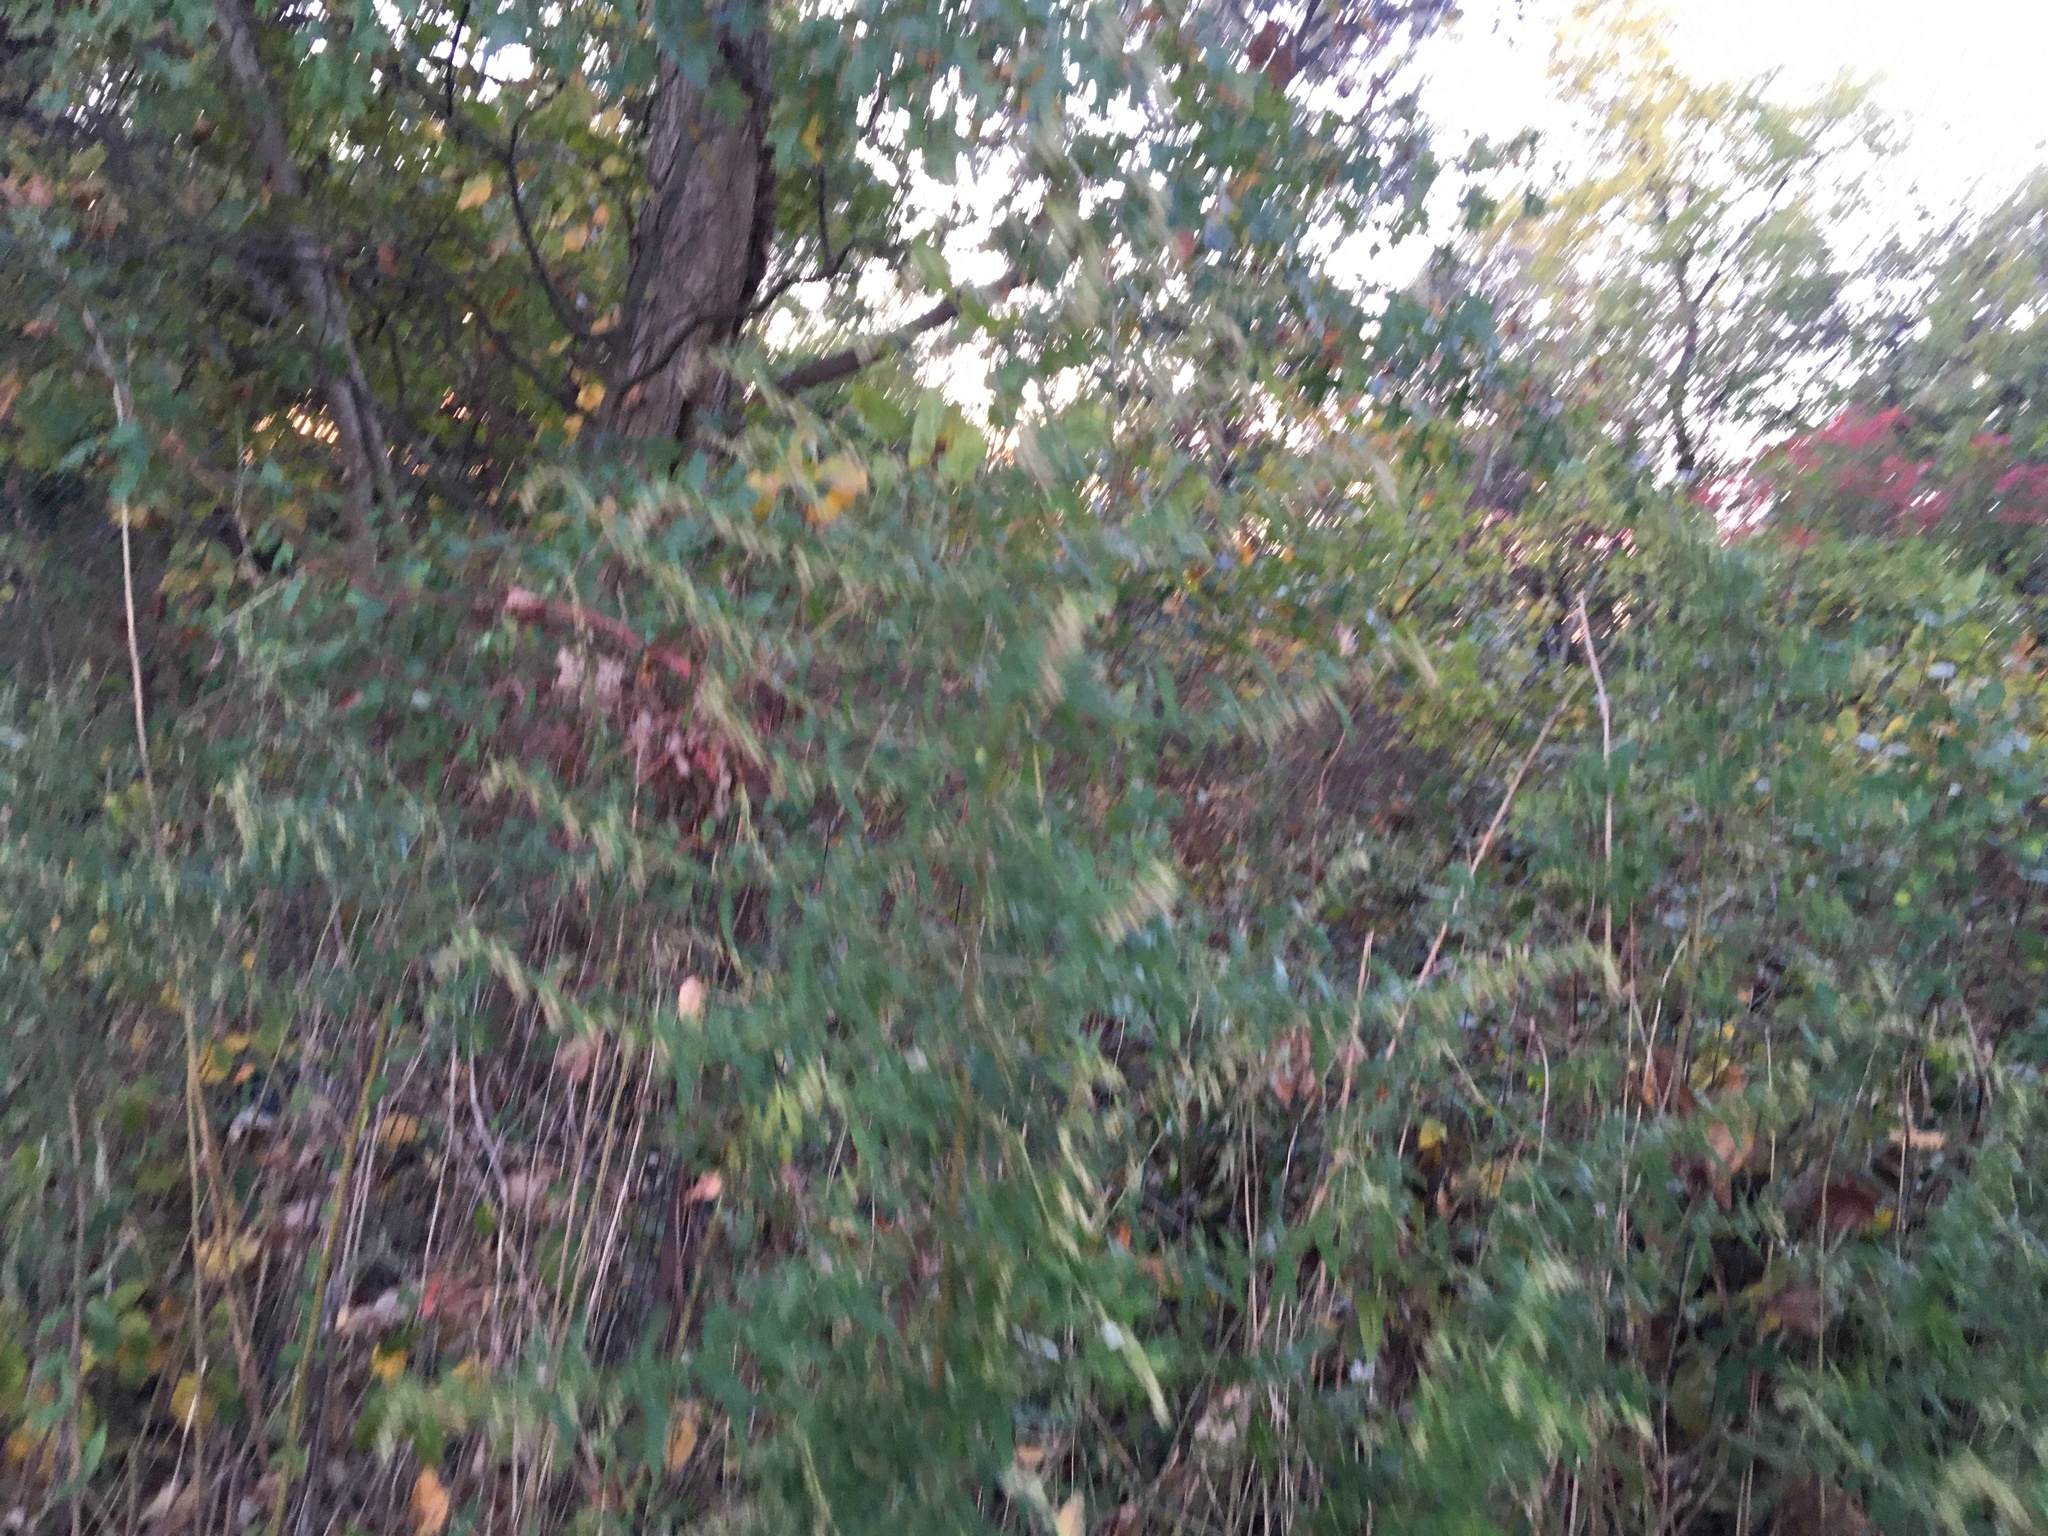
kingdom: Plantae
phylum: Tracheophyta
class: Magnoliopsida
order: Asterales
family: Asteraceae
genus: Artemisia
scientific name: Artemisia vulgaris
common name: Mugwort
